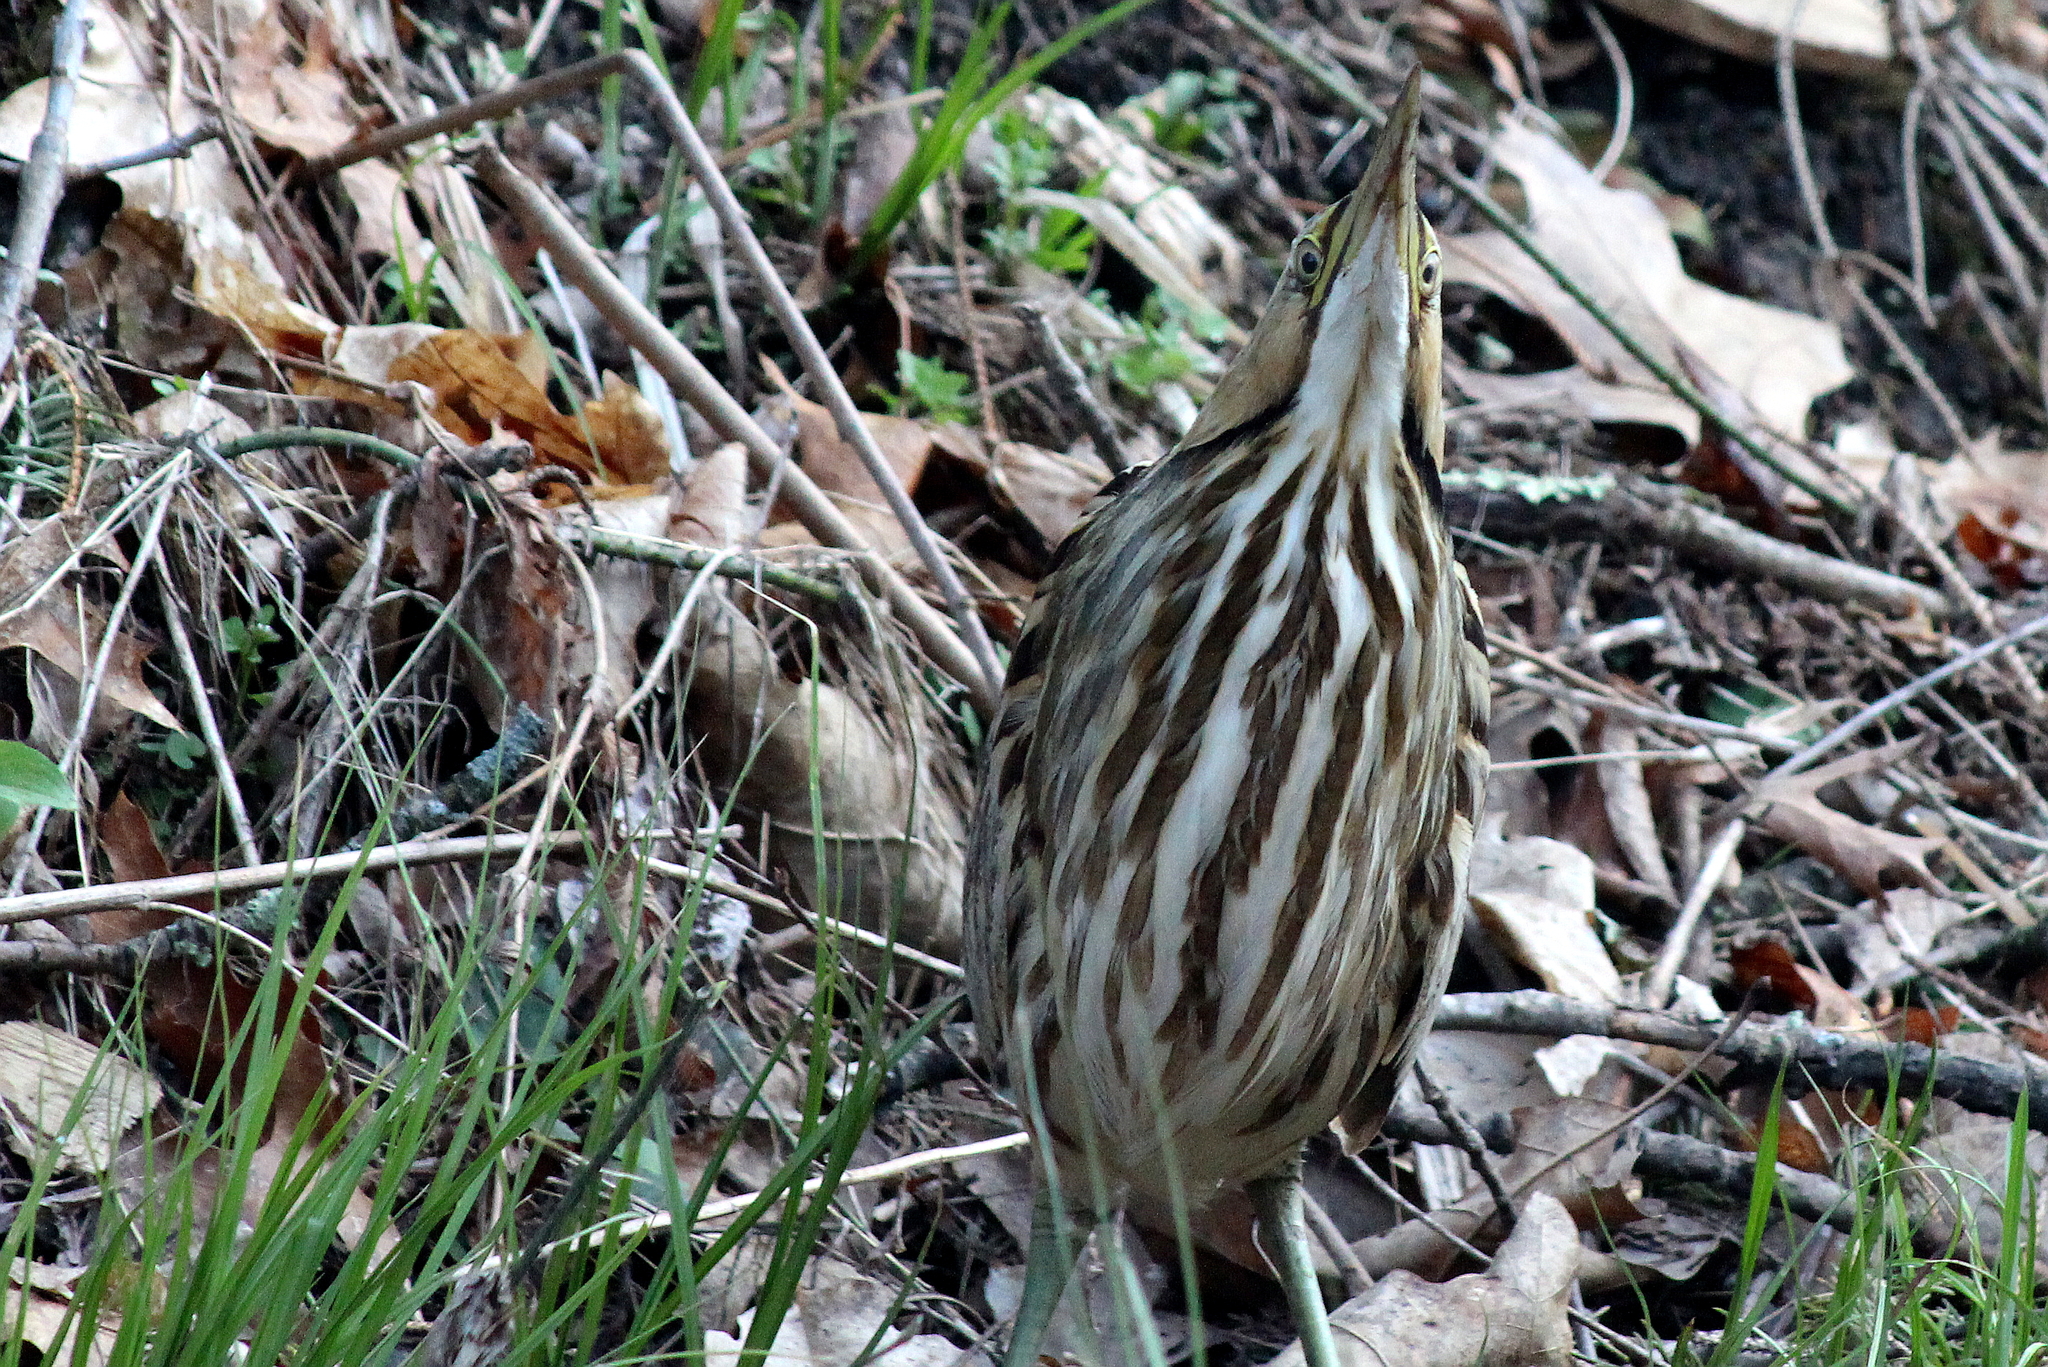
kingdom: Animalia
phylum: Chordata
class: Aves
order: Pelecaniformes
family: Ardeidae
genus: Botaurus
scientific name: Botaurus lentiginosus
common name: American bittern
